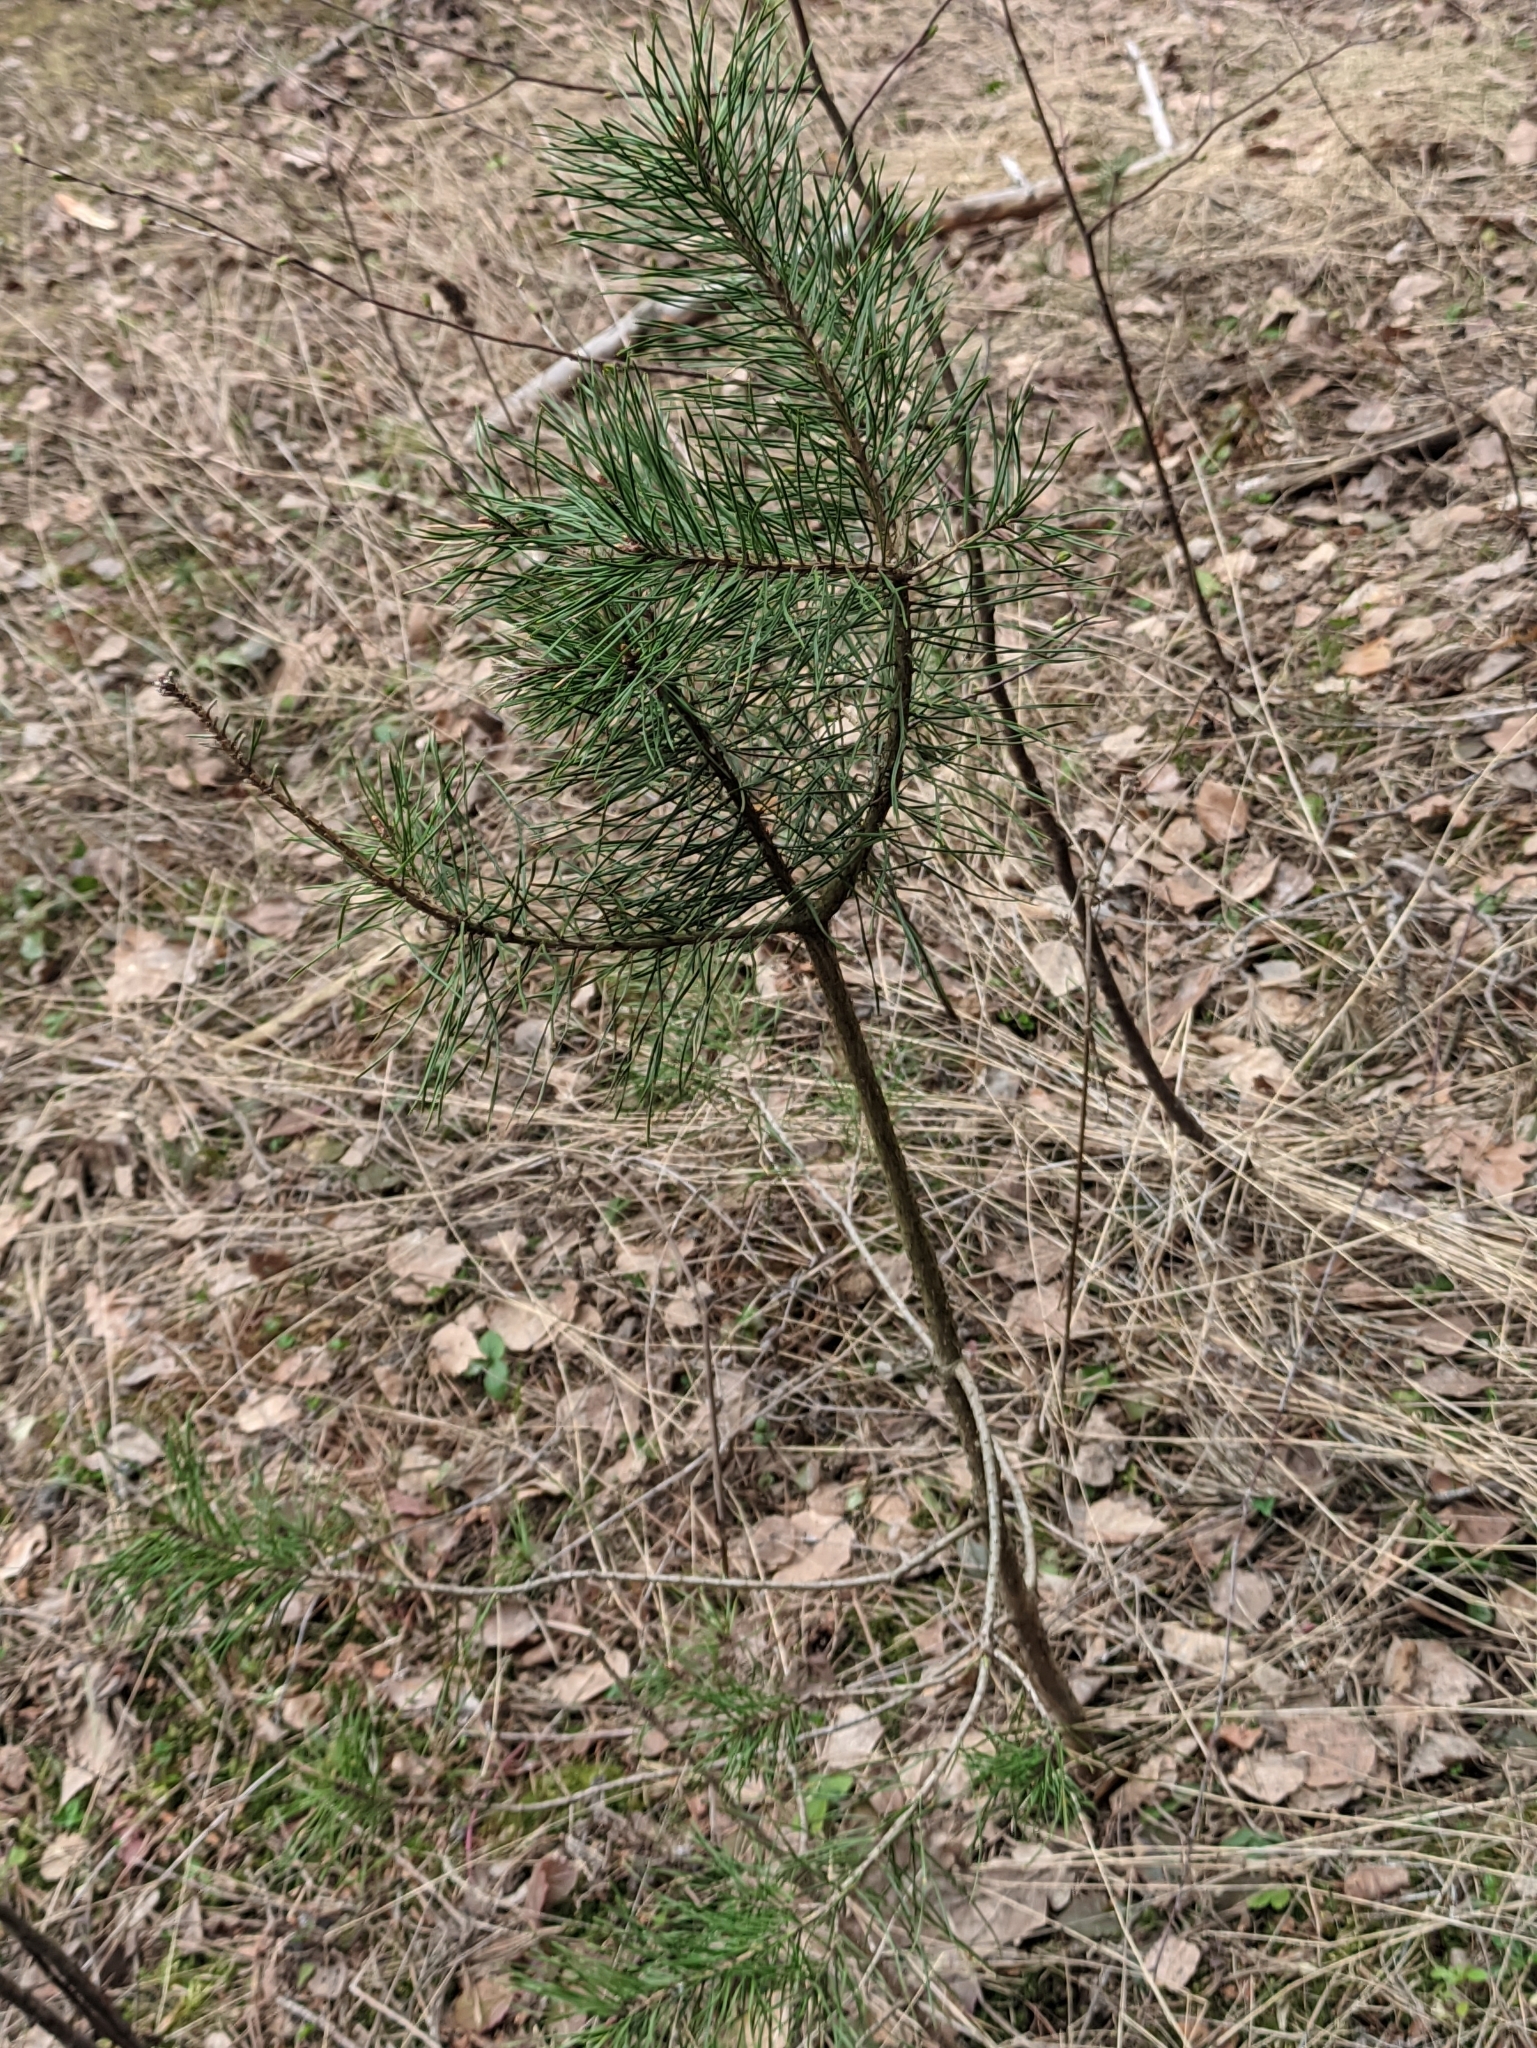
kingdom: Plantae
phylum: Tracheophyta
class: Pinopsida
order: Pinales
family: Pinaceae
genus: Pinus
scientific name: Pinus sylvestris
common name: Scots pine
